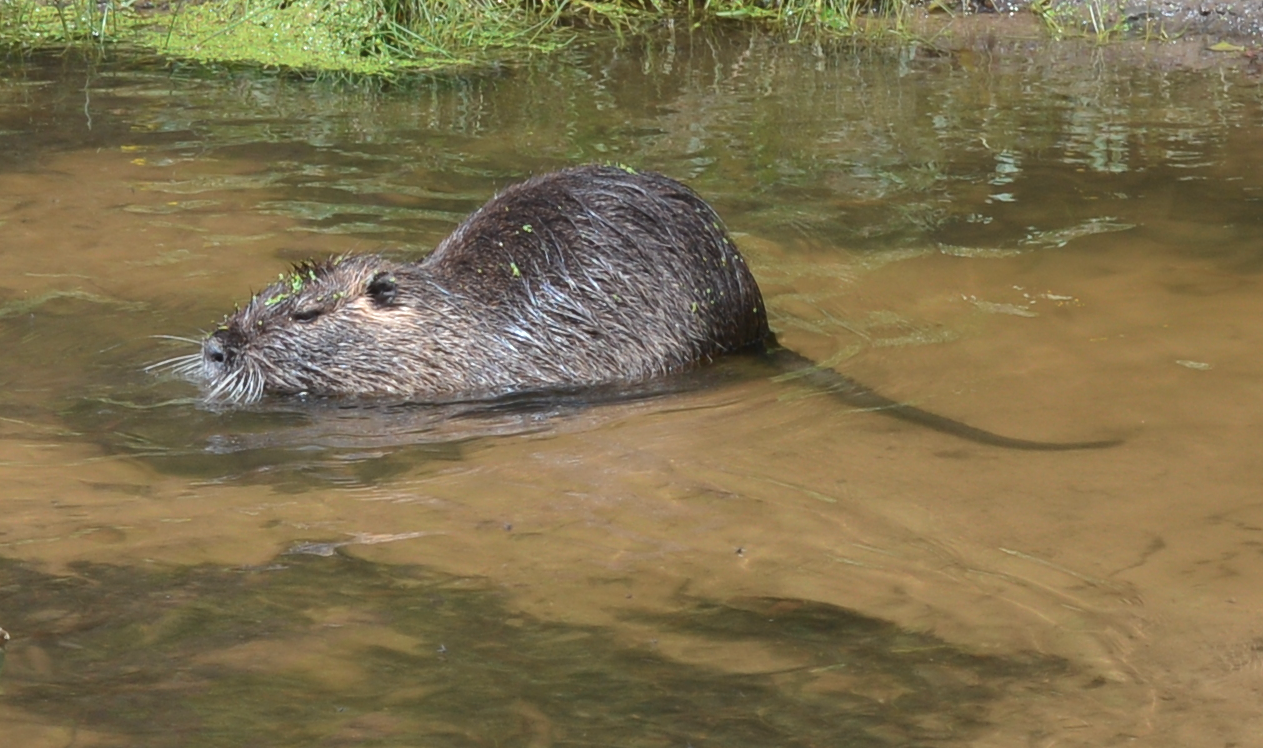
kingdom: Animalia
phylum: Chordata
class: Mammalia
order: Rodentia
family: Myocastoridae
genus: Myocastor
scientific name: Myocastor coypus
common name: Coypu
